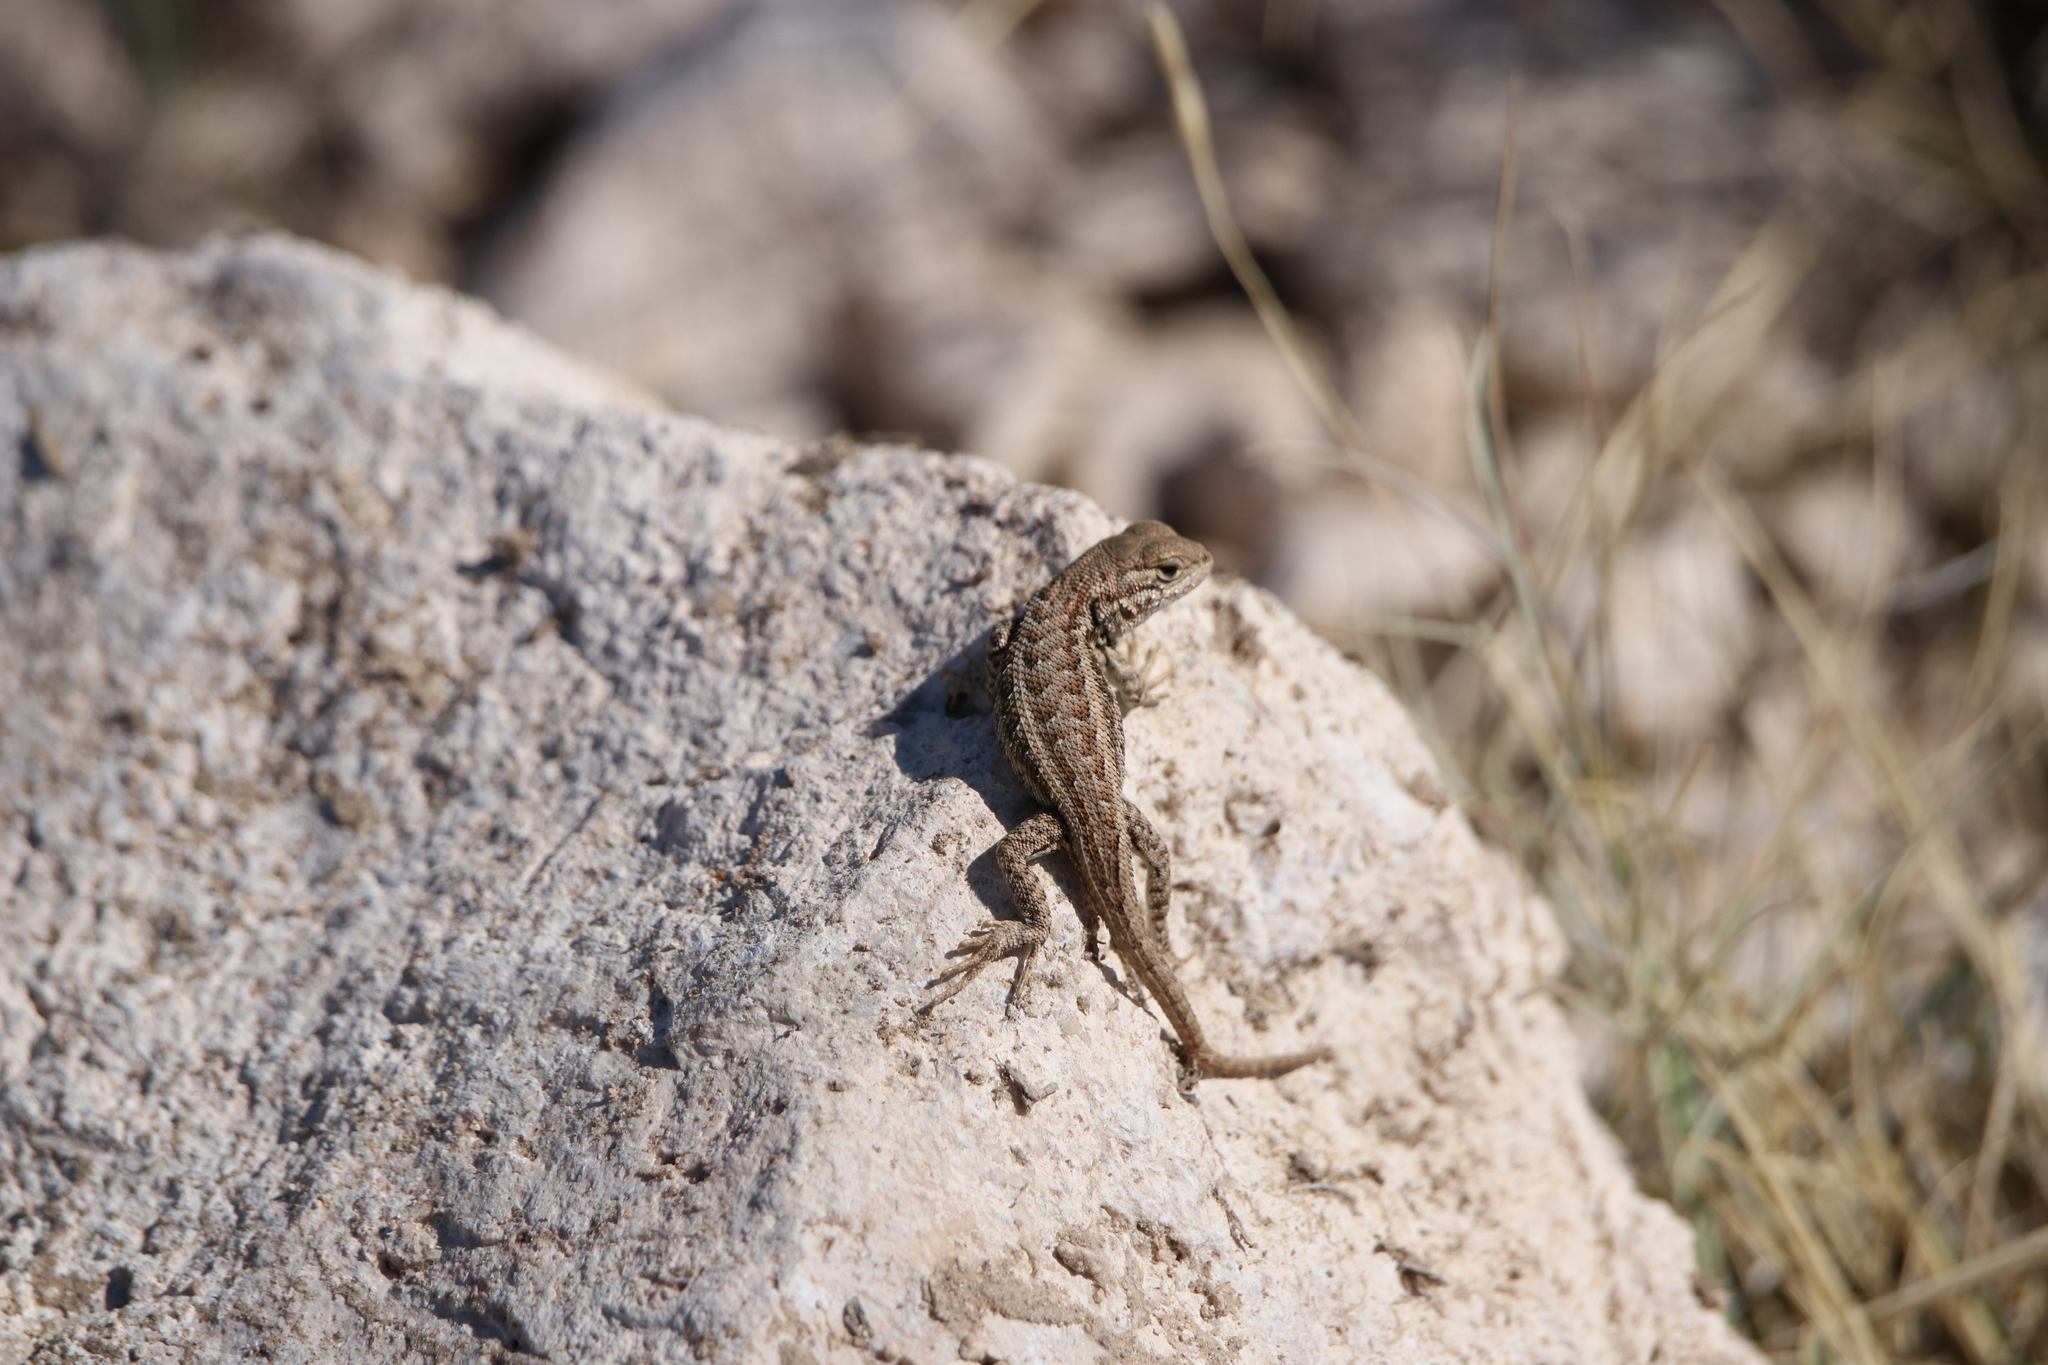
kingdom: Animalia
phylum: Chordata
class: Squamata
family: Phrynosomatidae
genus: Sceloporus
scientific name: Sceloporus graciosus
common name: Sagebrush lizard
